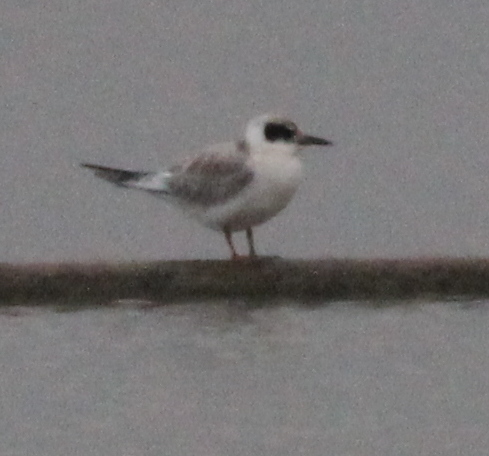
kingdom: Animalia
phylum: Chordata
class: Aves
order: Charadriiformes
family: Laridae
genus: Sterna
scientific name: Sterna forsteri
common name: Forster's tern
